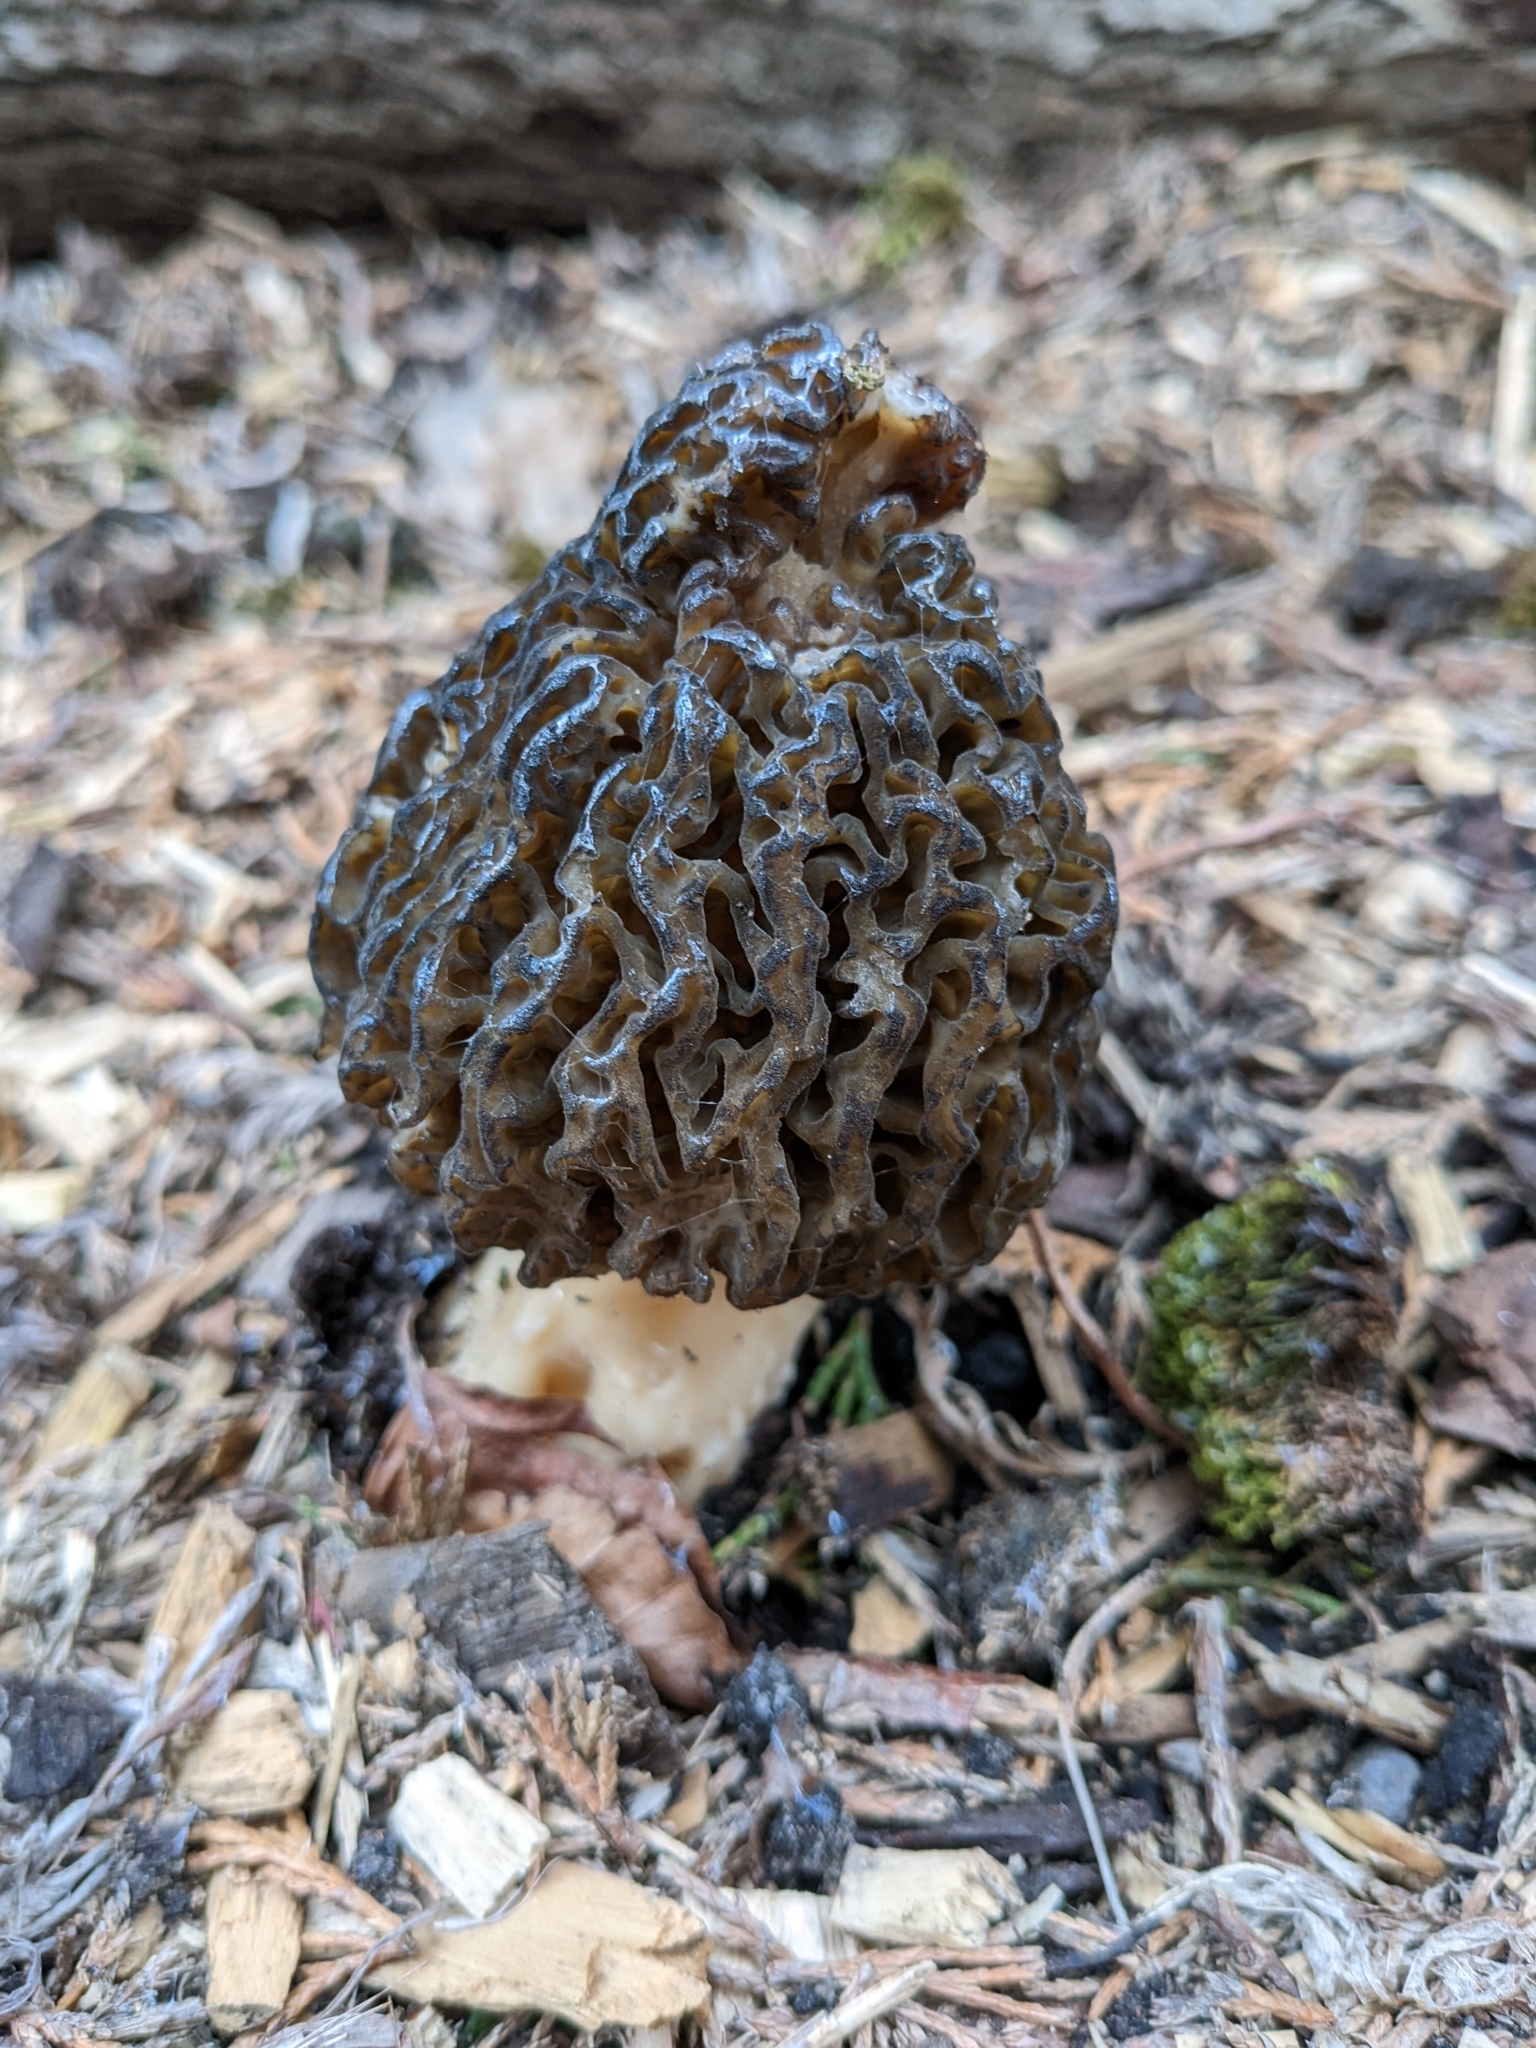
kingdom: Fungi
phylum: Ascomycota
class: Pezizomycetes
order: Pezizales
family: Morchellaceae
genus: Morchella
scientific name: Morchella snyderi
